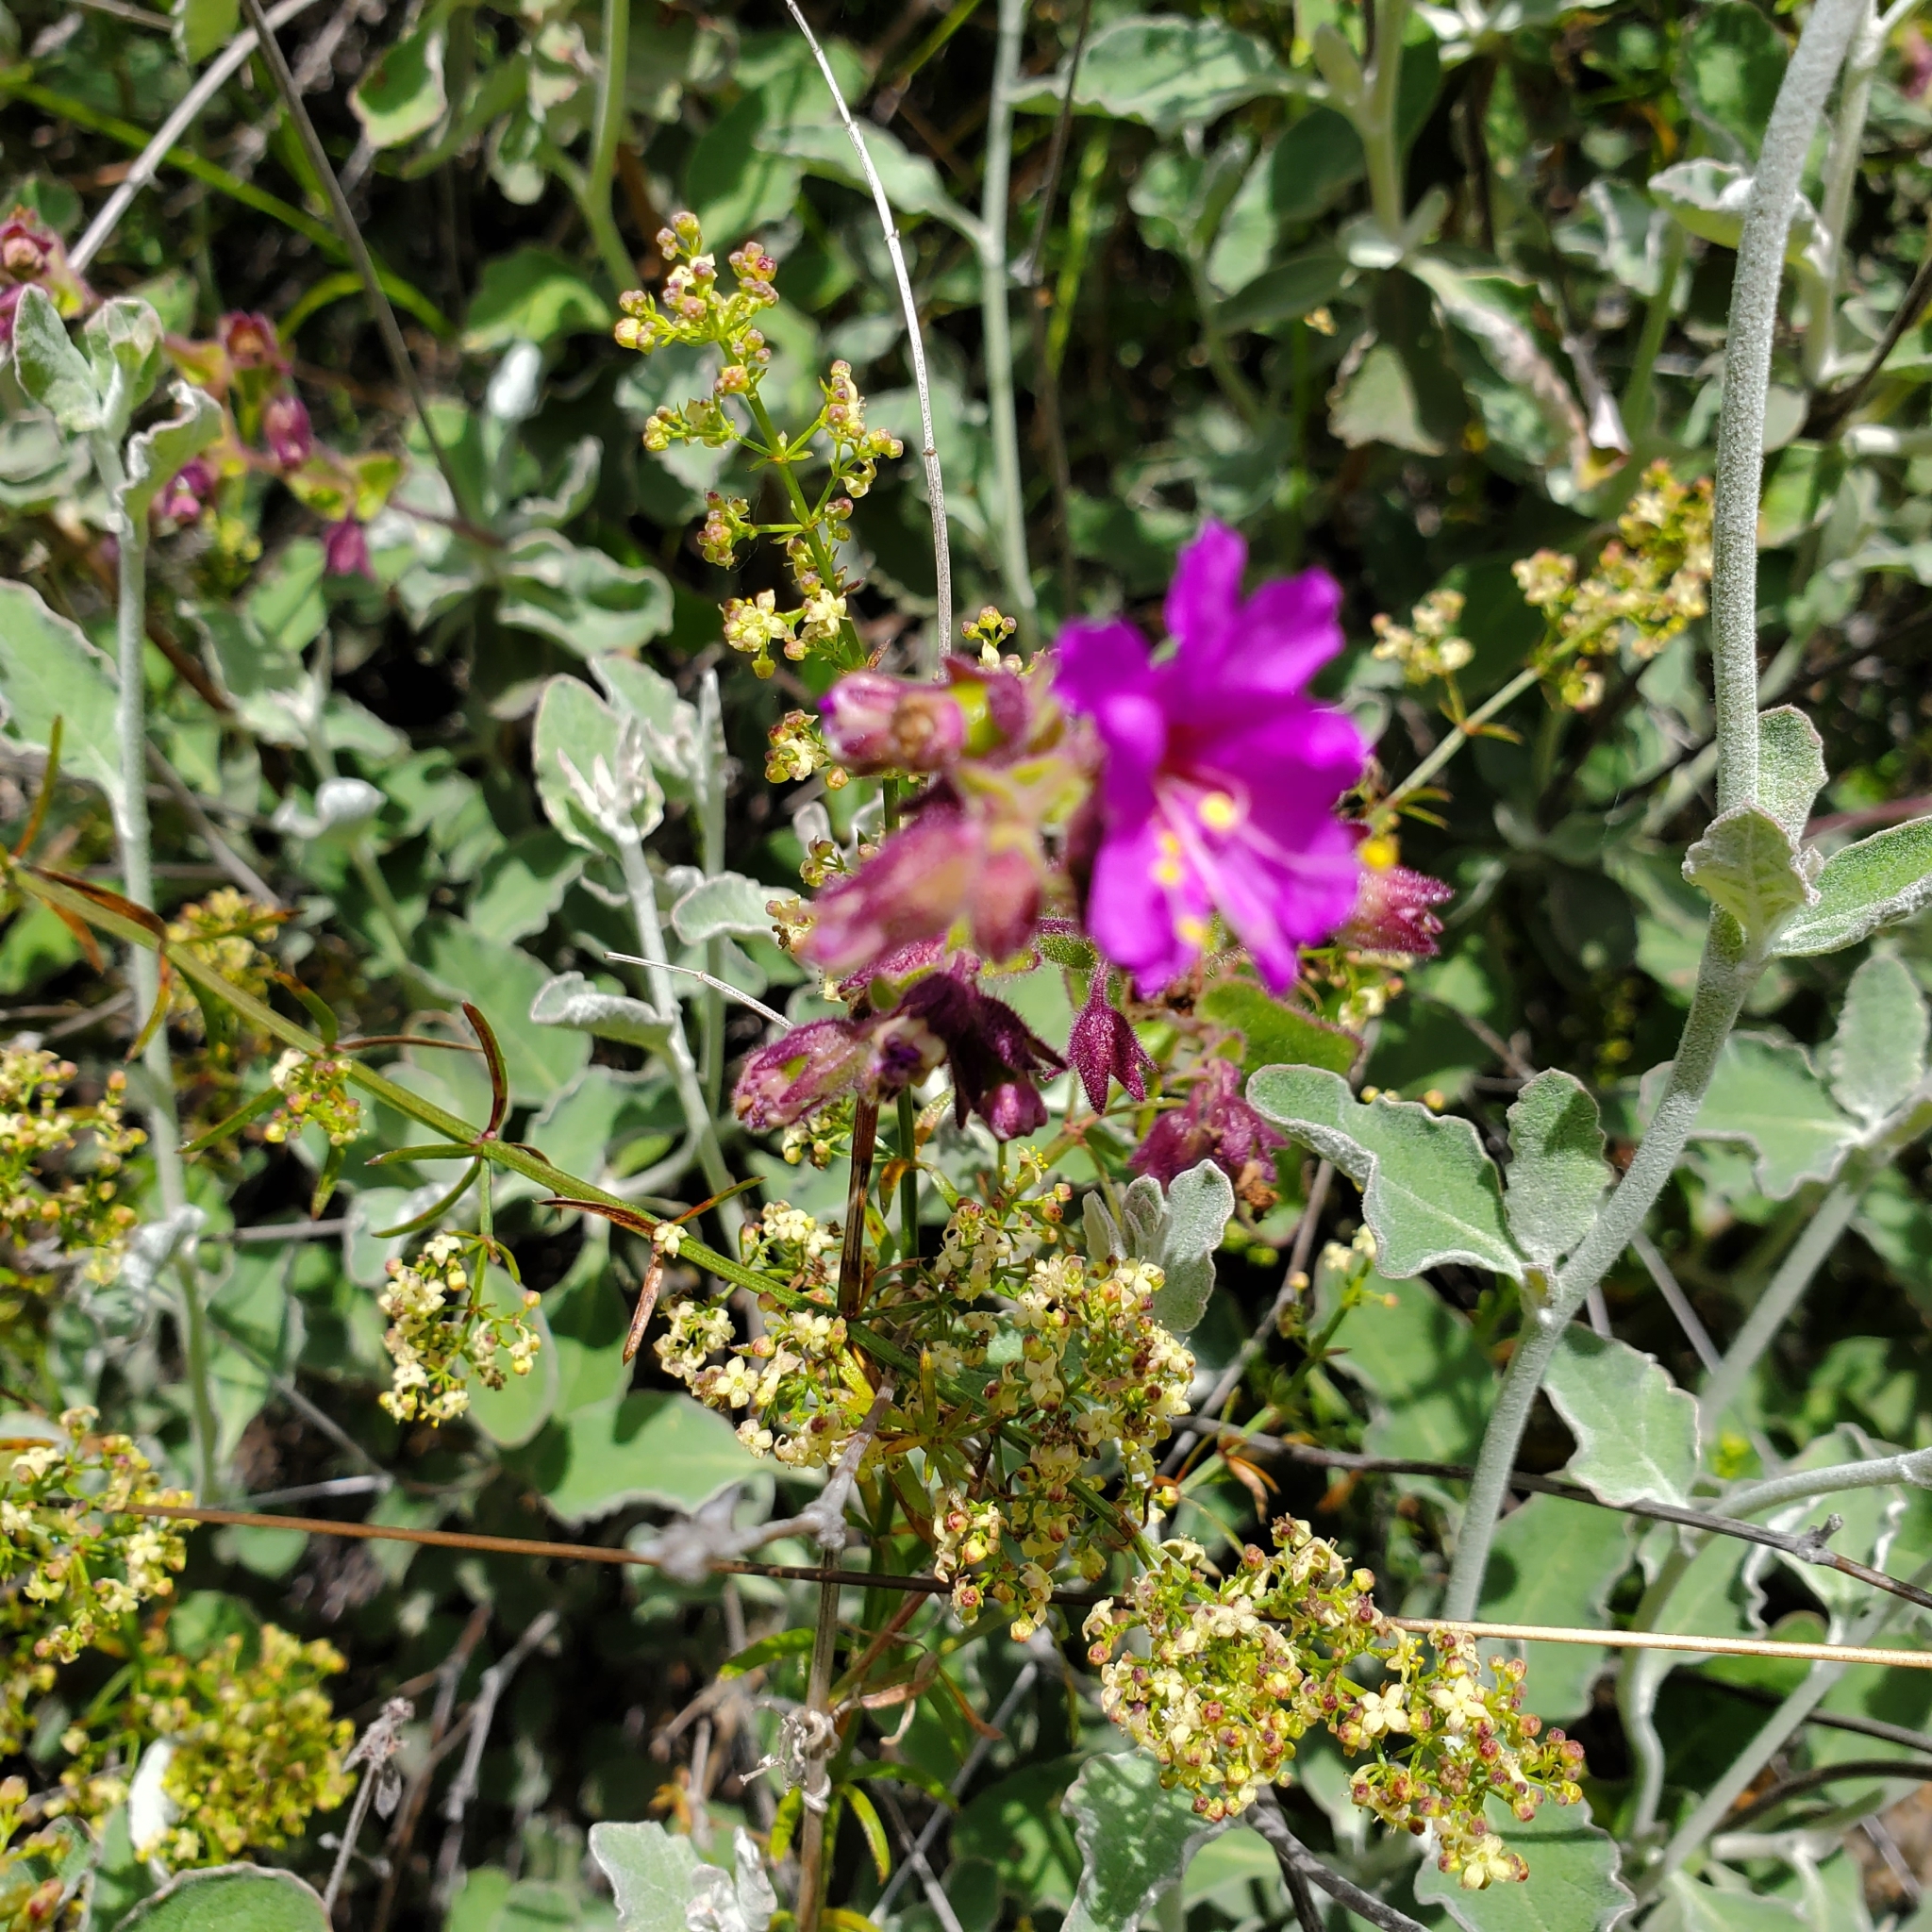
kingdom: Plantae
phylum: Tracheophyta
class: Magnoliopsida
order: Caryophyllales
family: Nyctaginaceae
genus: Mirabilis
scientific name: Mirabilis laevis
